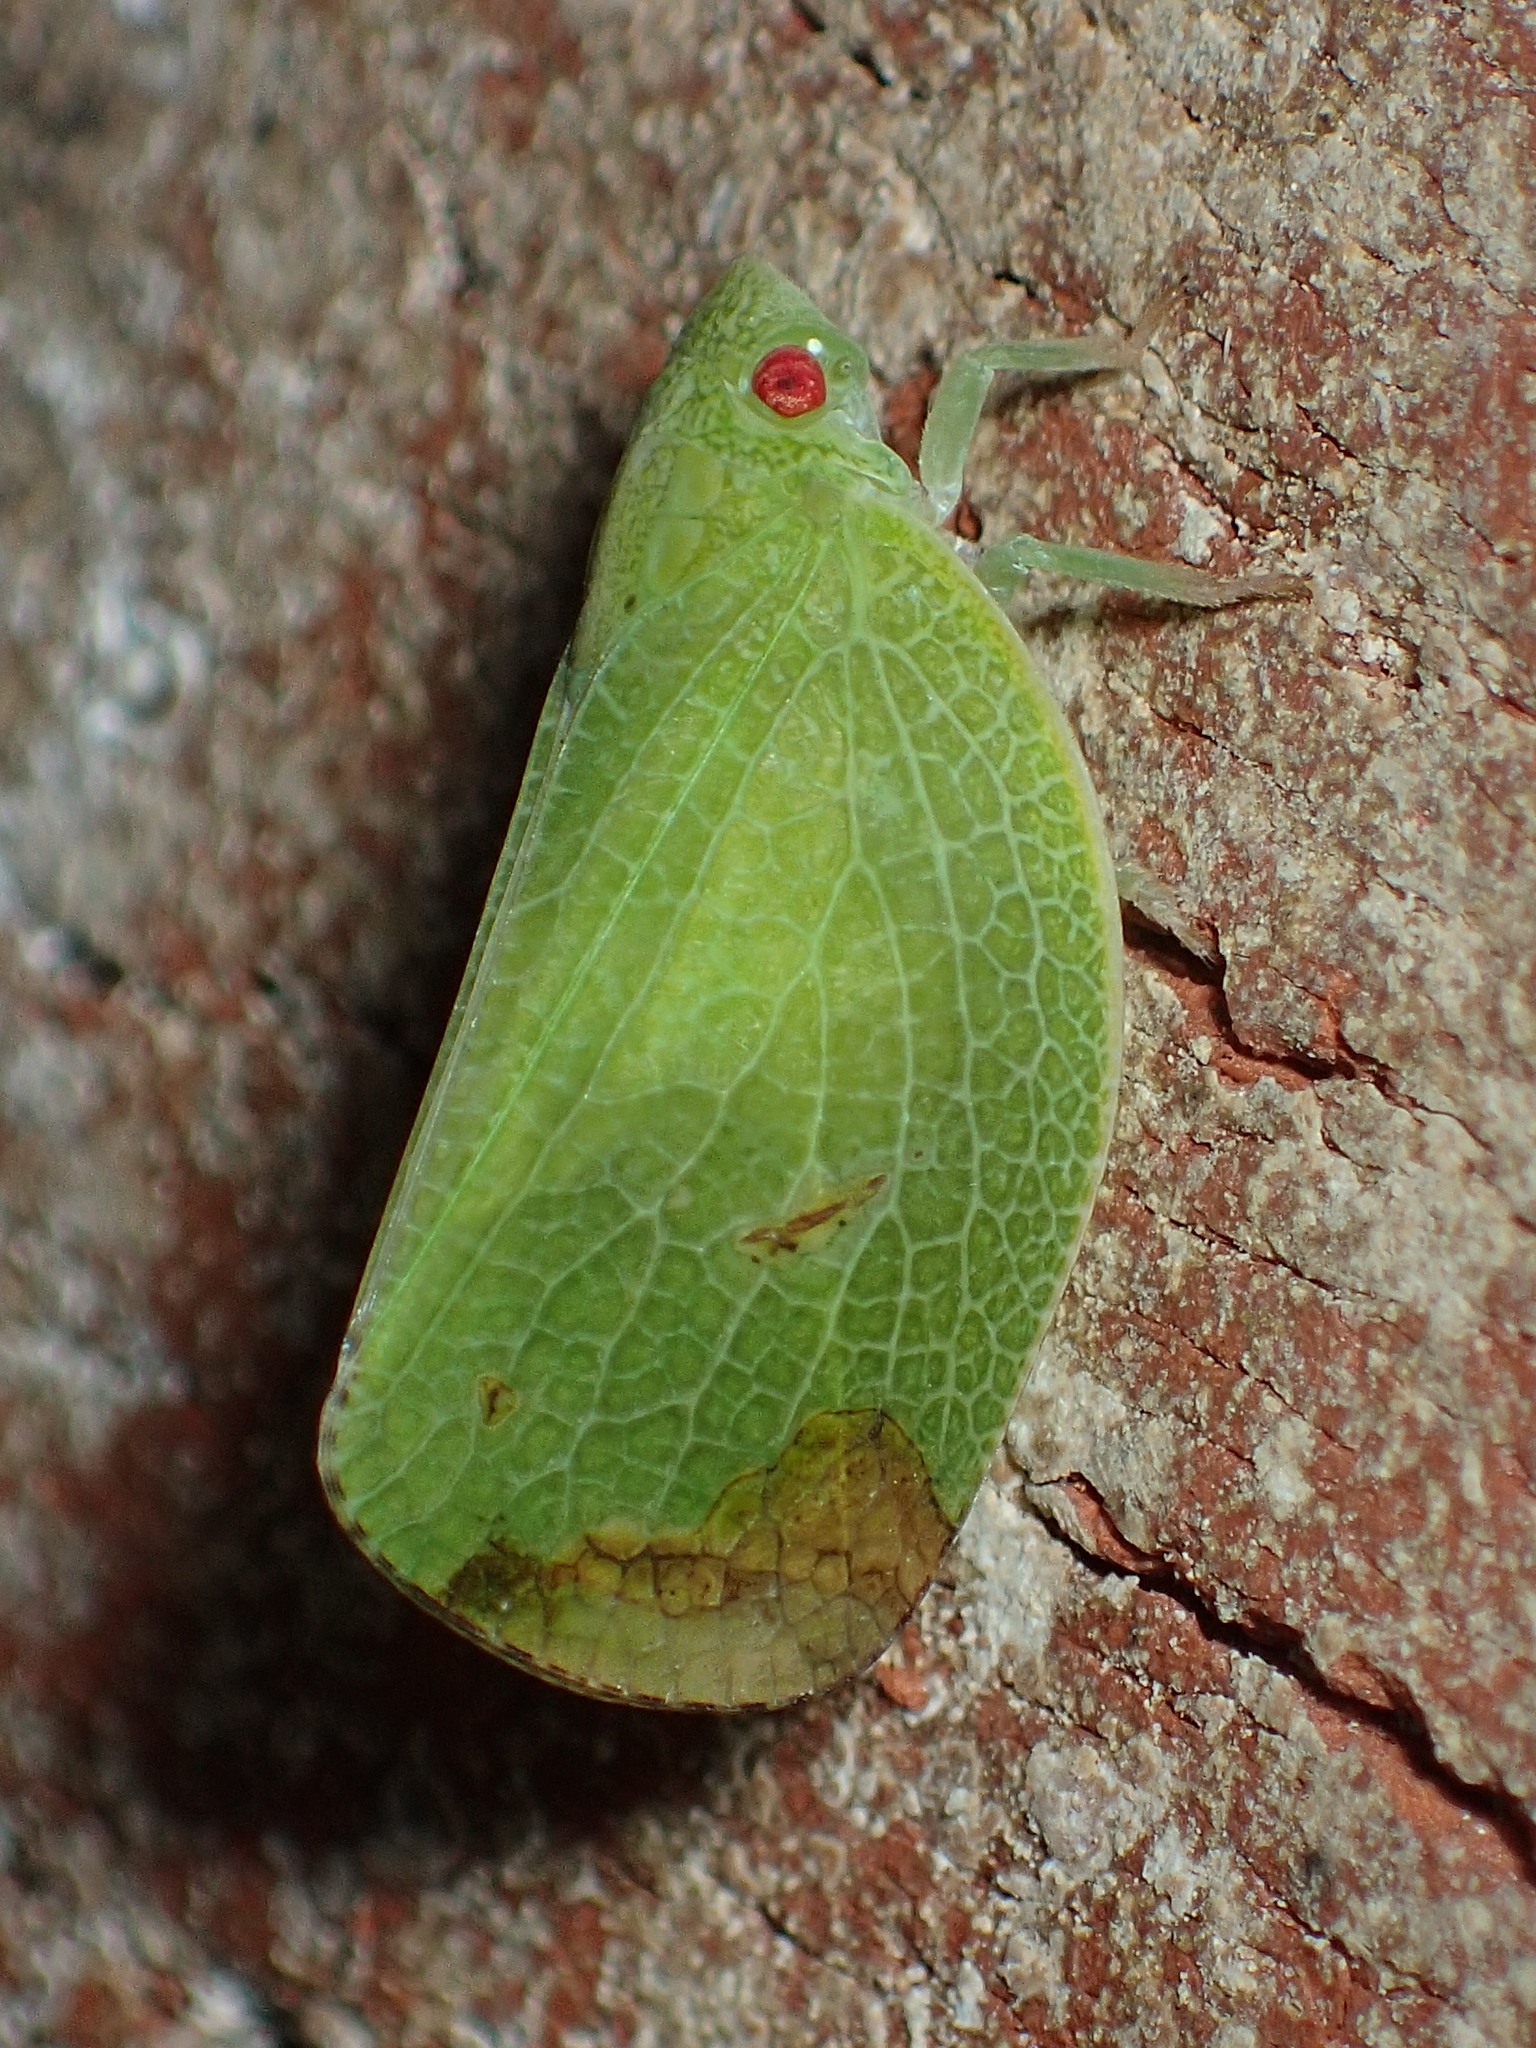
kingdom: Animalia
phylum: Arthropoda
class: Insecta
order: Hemiptera
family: Acanaloniidae
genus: Acanalonia
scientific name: Acanalonia conica
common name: Green cone-headed planthopper
